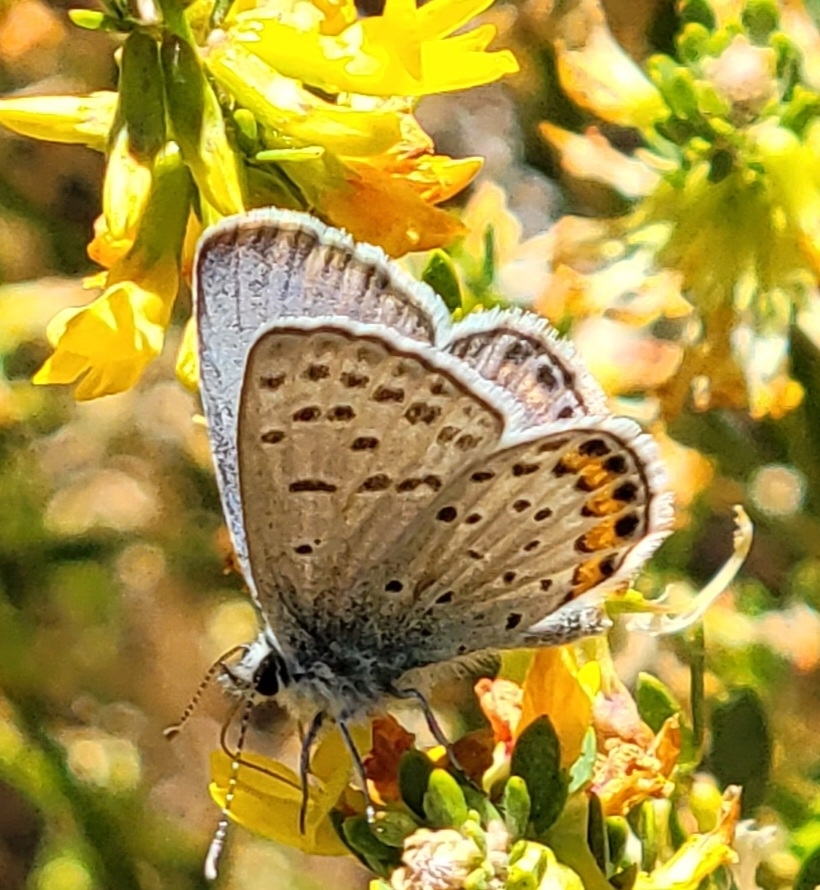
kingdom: Animalia
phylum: Arthropoda
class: Insecta
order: Lepidoptera
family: Lycaenidae
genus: Icaricia
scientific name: Icaricia acmon
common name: Acmon blue
